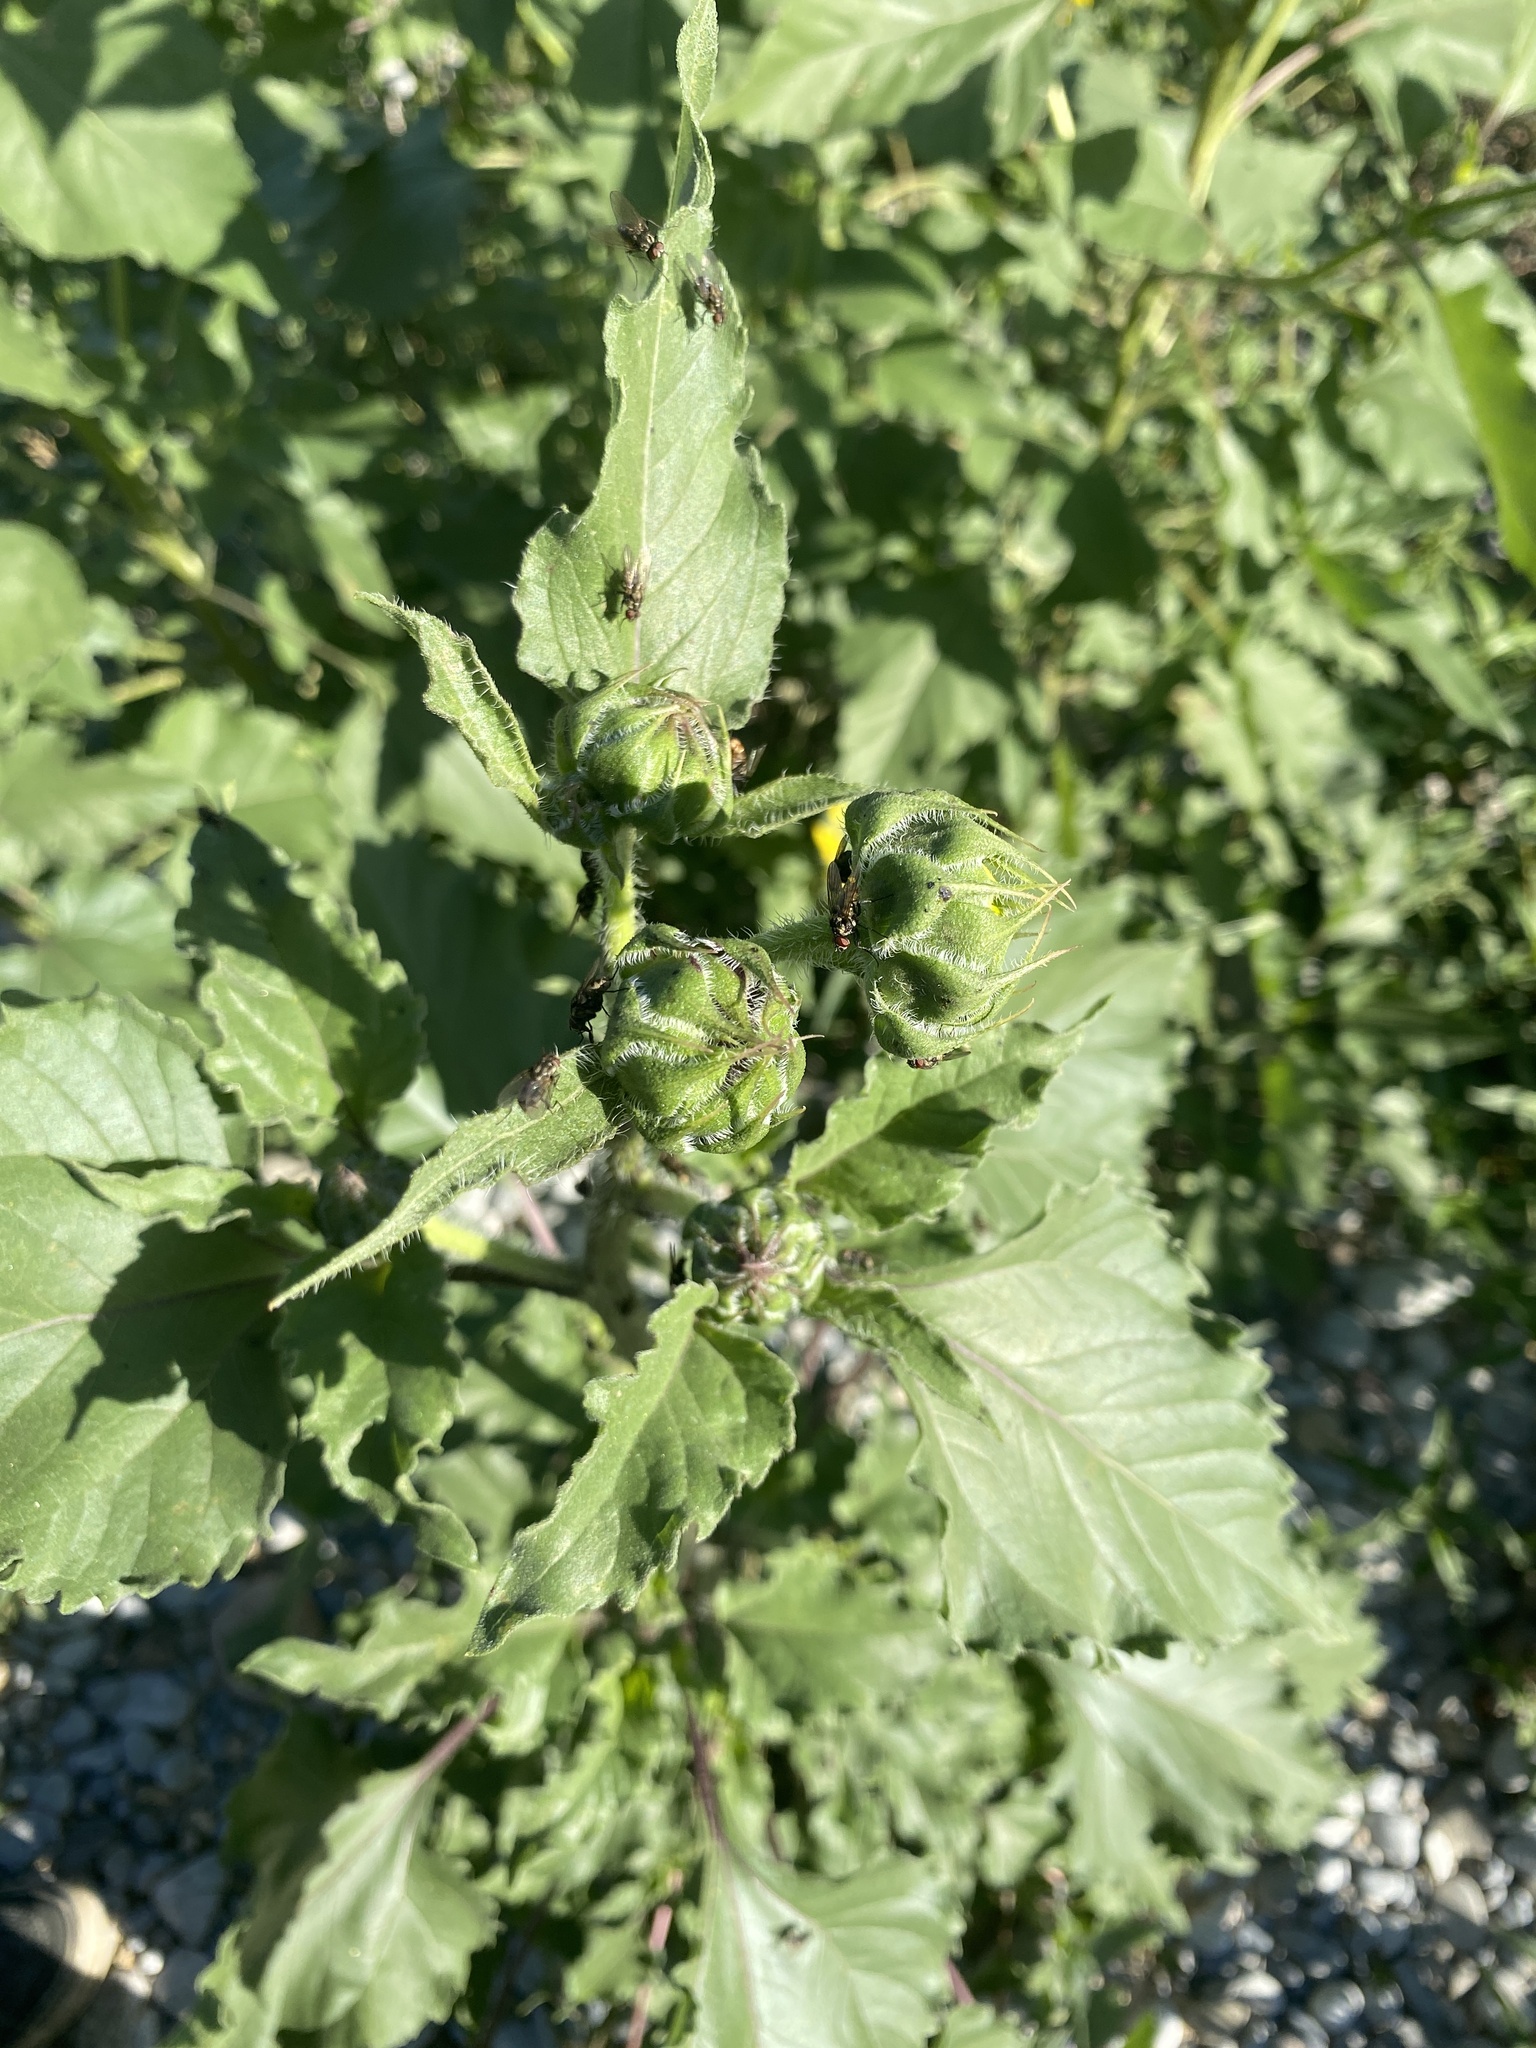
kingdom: Plantae
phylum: Tracheophyta
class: Magnoliopsida
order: Asterales
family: Asteraceae
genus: Helianthus
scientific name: Helianthus annuus
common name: Sunflower
